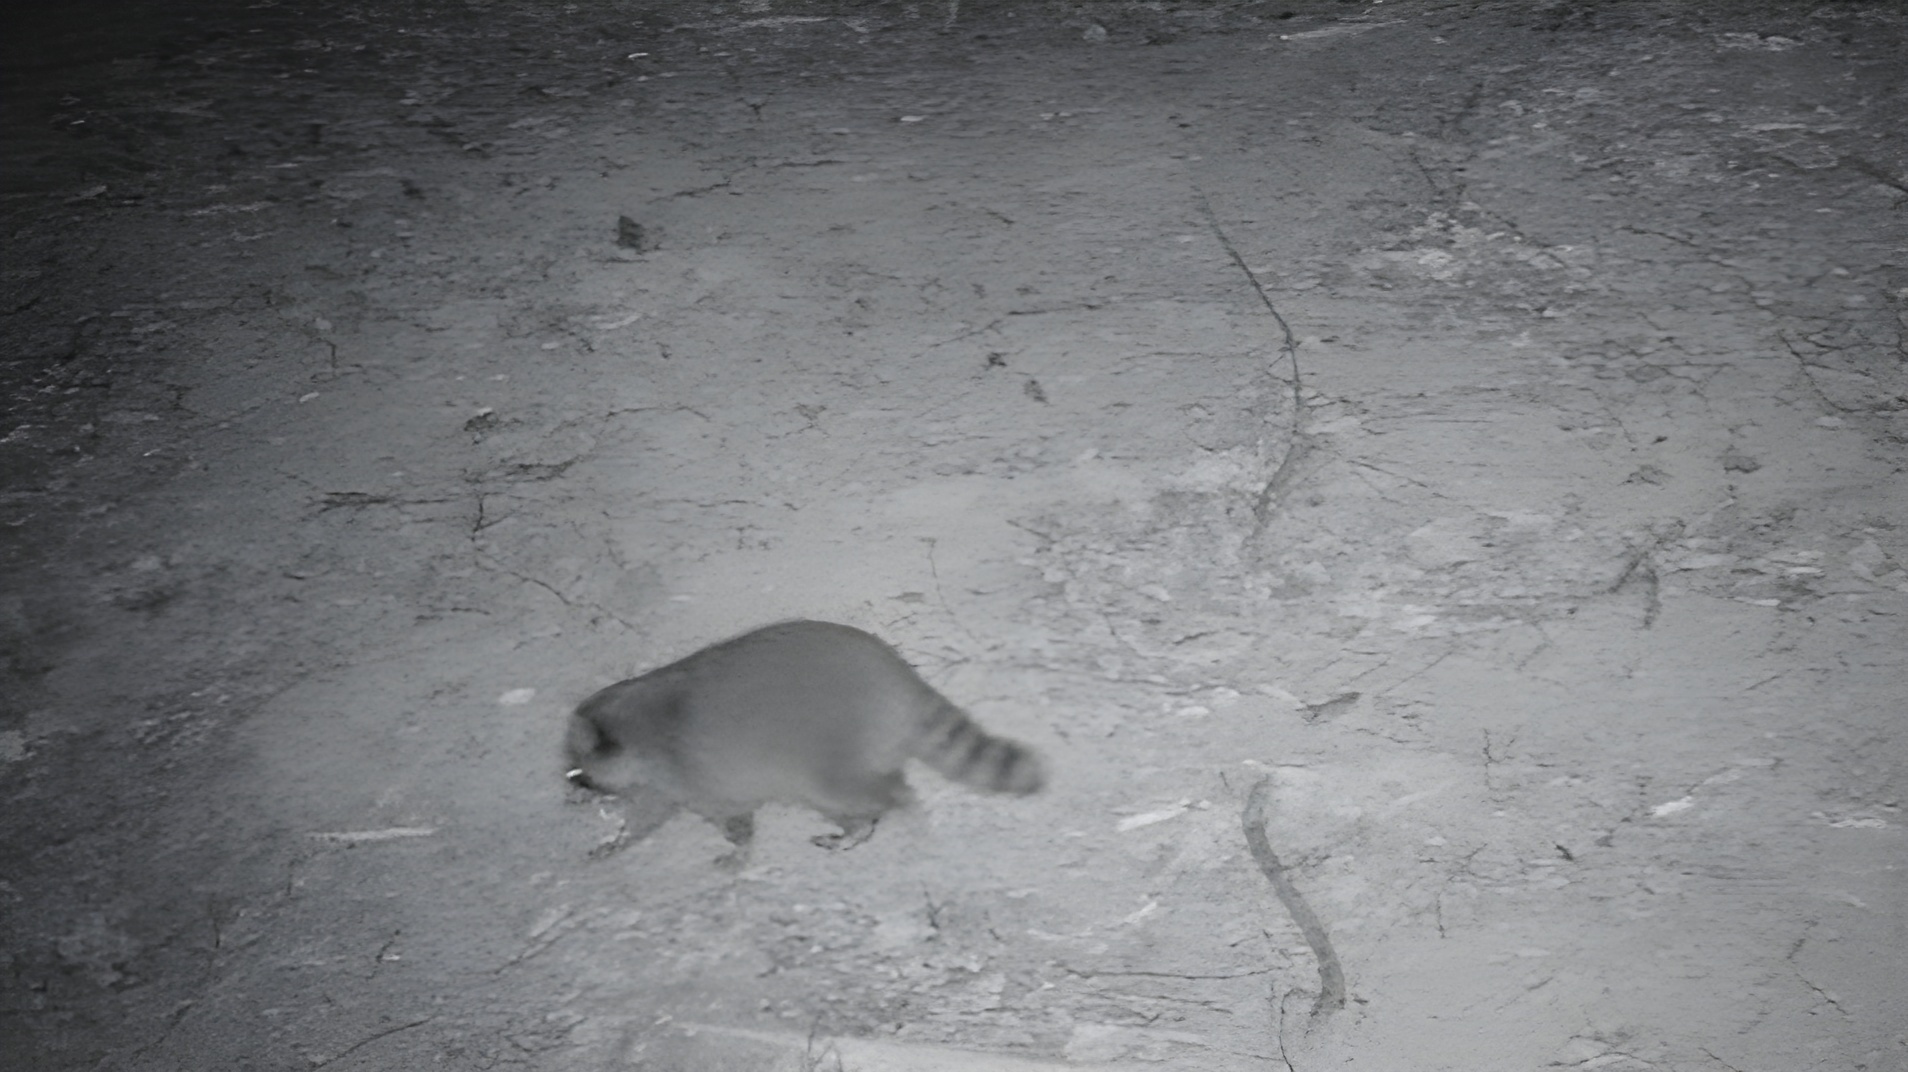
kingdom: Animalia
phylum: Chordata
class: Mammalia
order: Carnivora
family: Procyonidae
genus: Procyon
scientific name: Procyon lotor
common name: Raccoon
